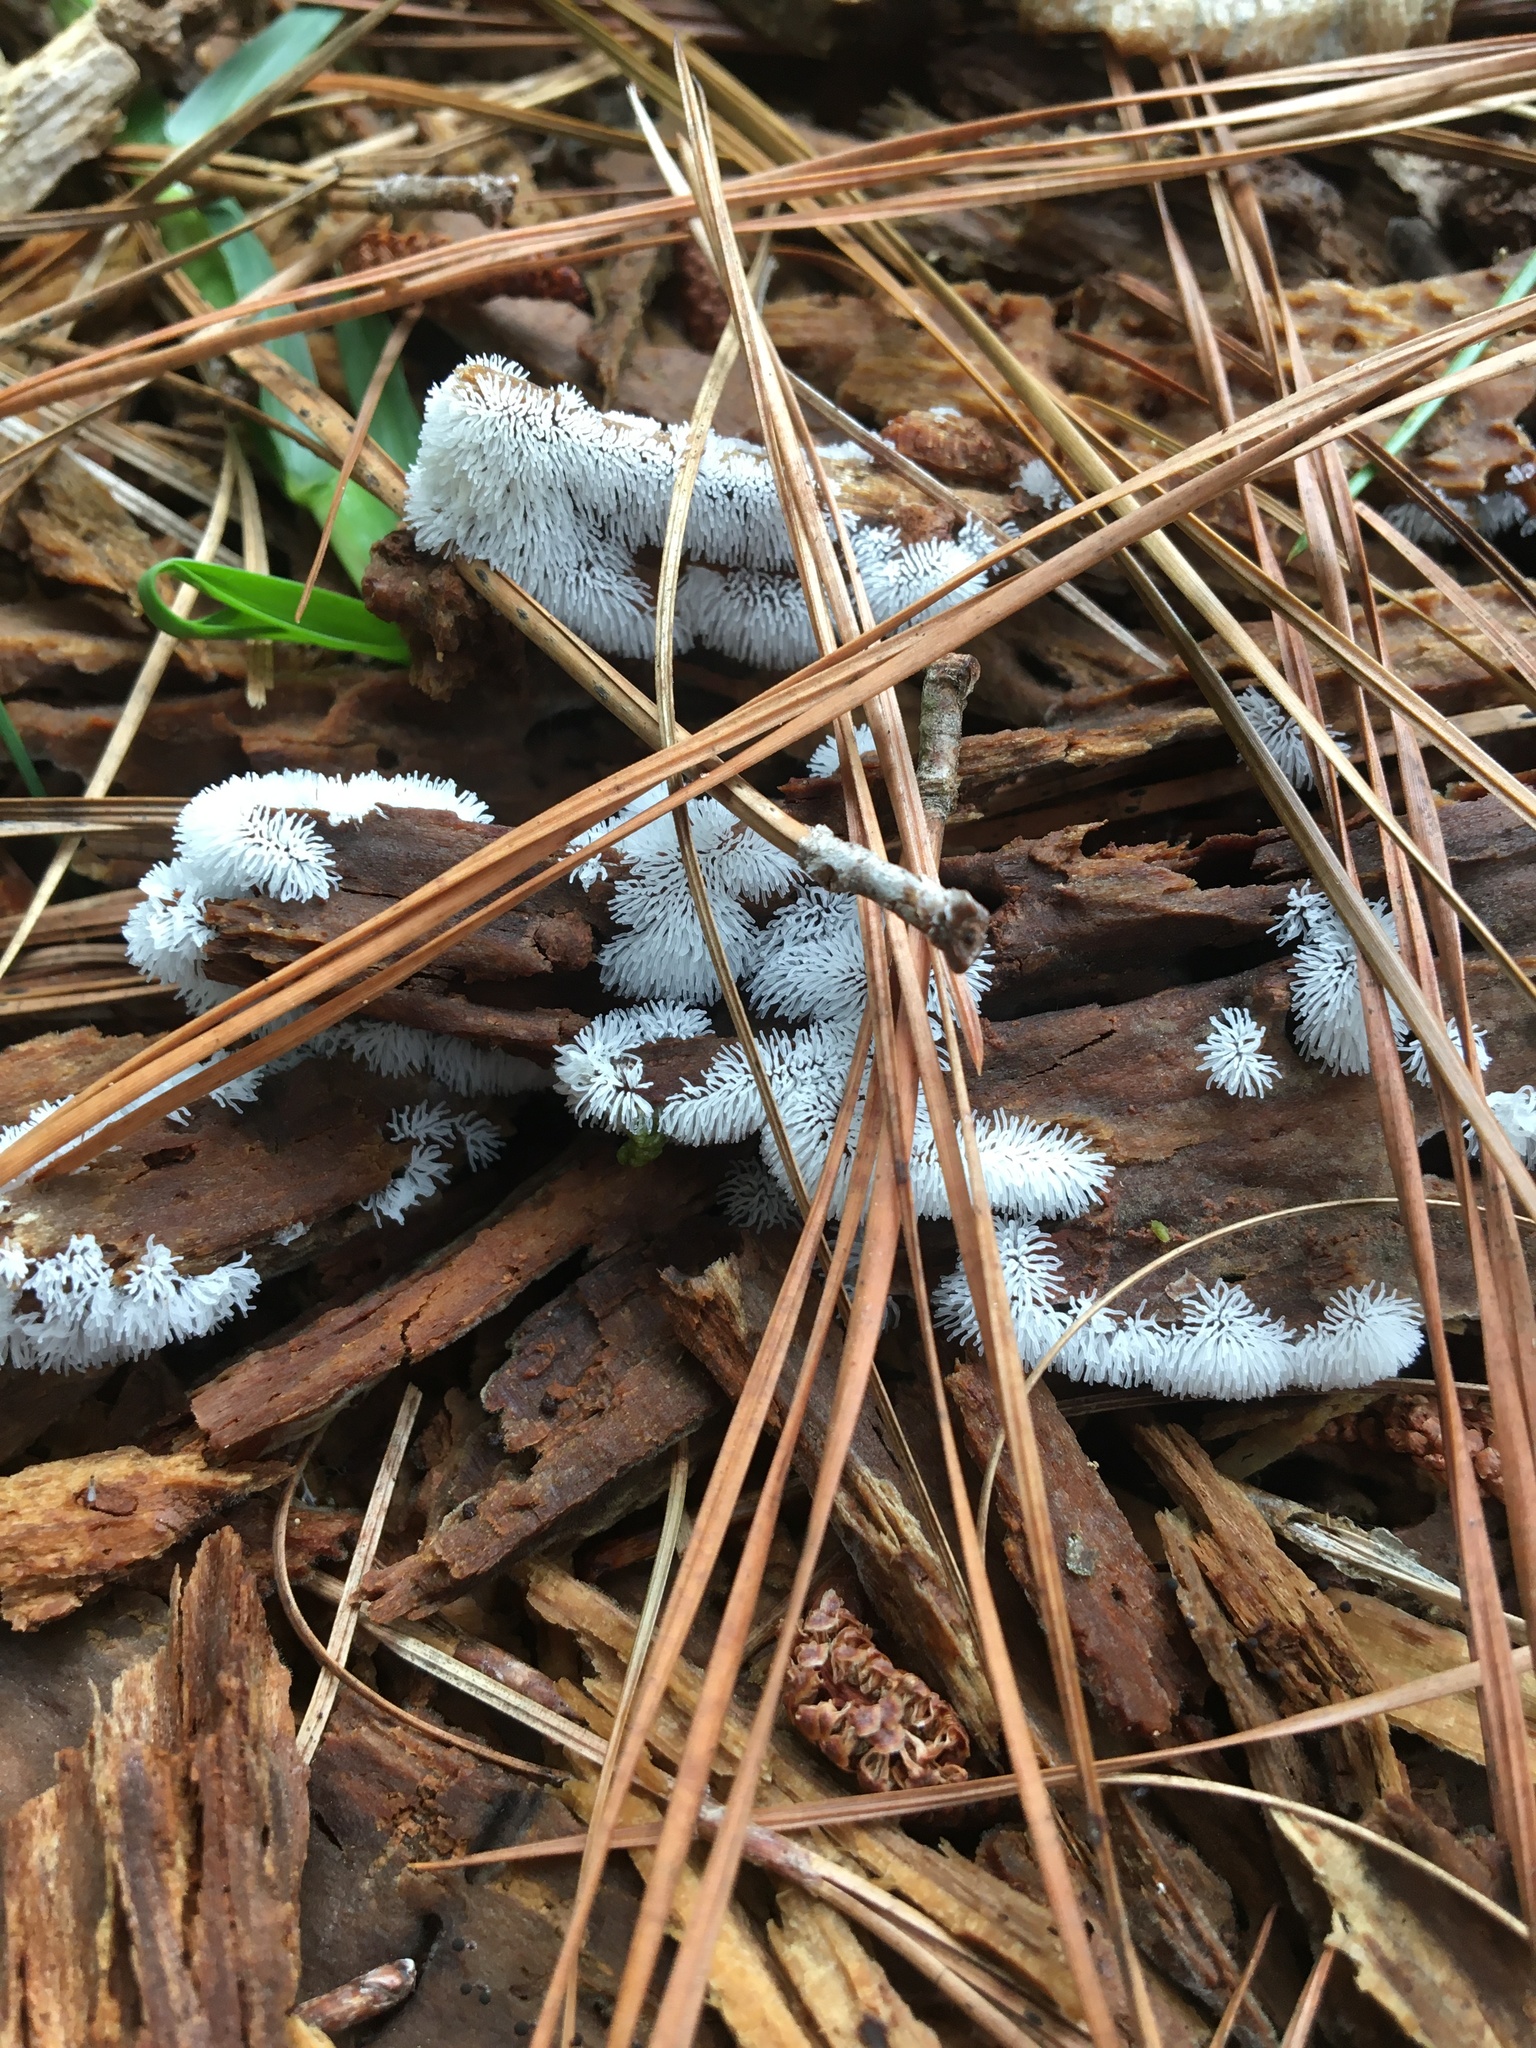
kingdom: Protozoa
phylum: Mycetozoa
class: Protosteliomycetes
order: Ceratiomyxales
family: Ceratiomyxaceae
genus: Ceratiomyxa
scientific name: Ceratiomyxa fruticulosa
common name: Honeycomb coral slime mold
